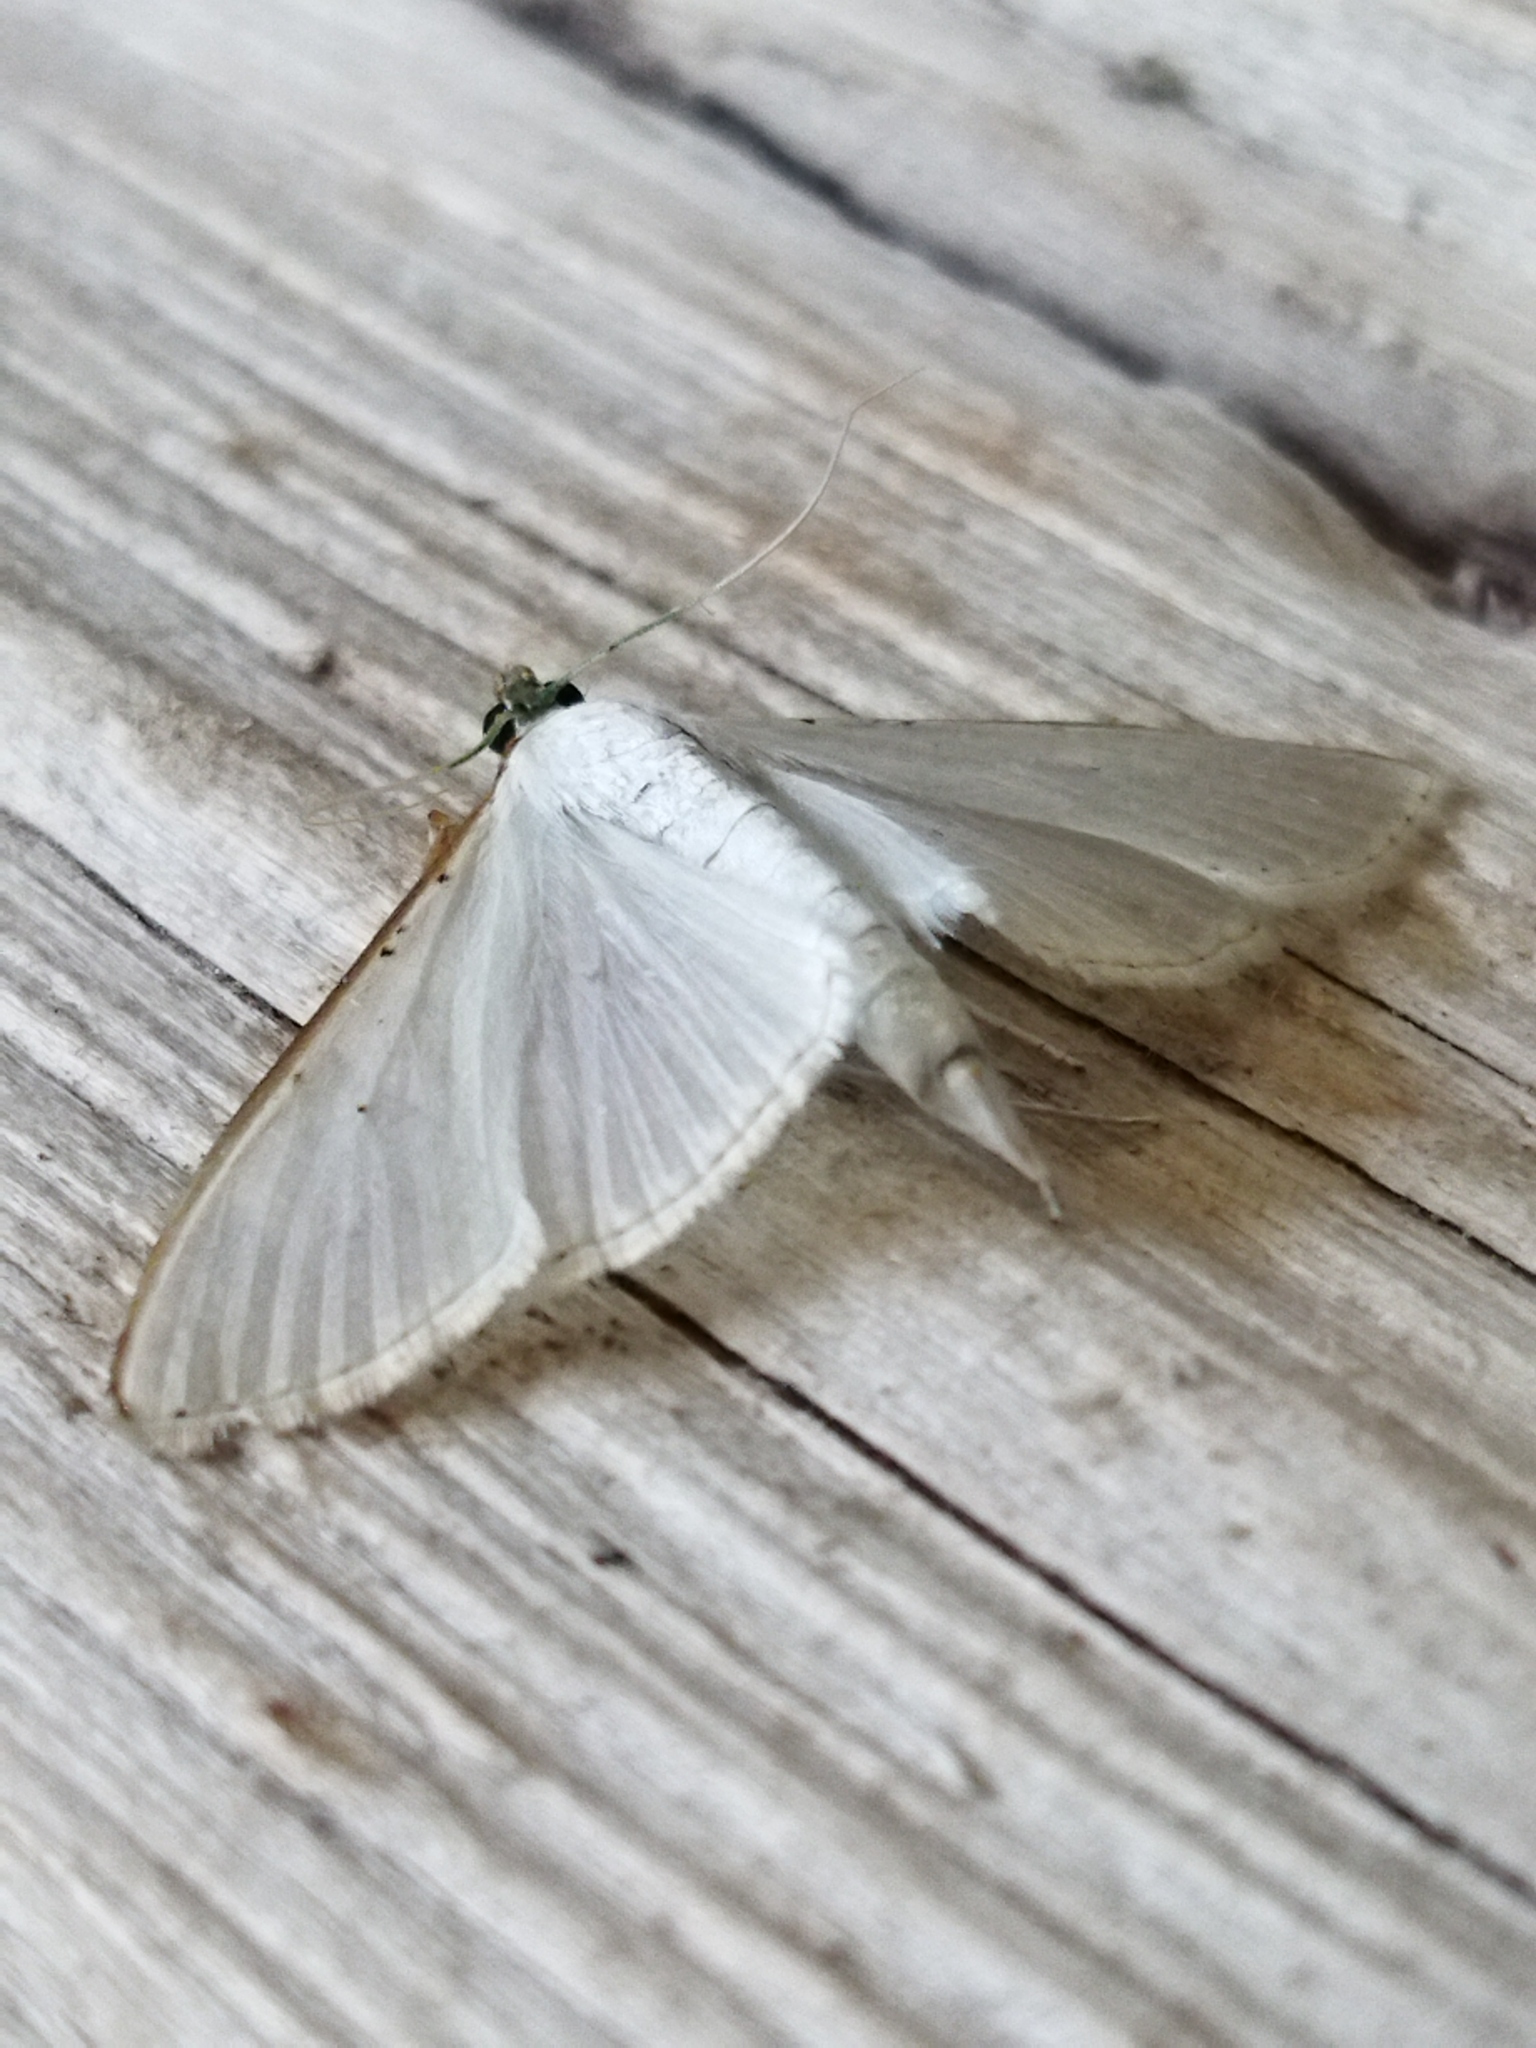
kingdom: Animalia
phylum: Arthropoda
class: Insecta
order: Lepidoptera
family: Crambidae
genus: Palpita
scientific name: Palpita vitrealis
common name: Olive-tree pearl
